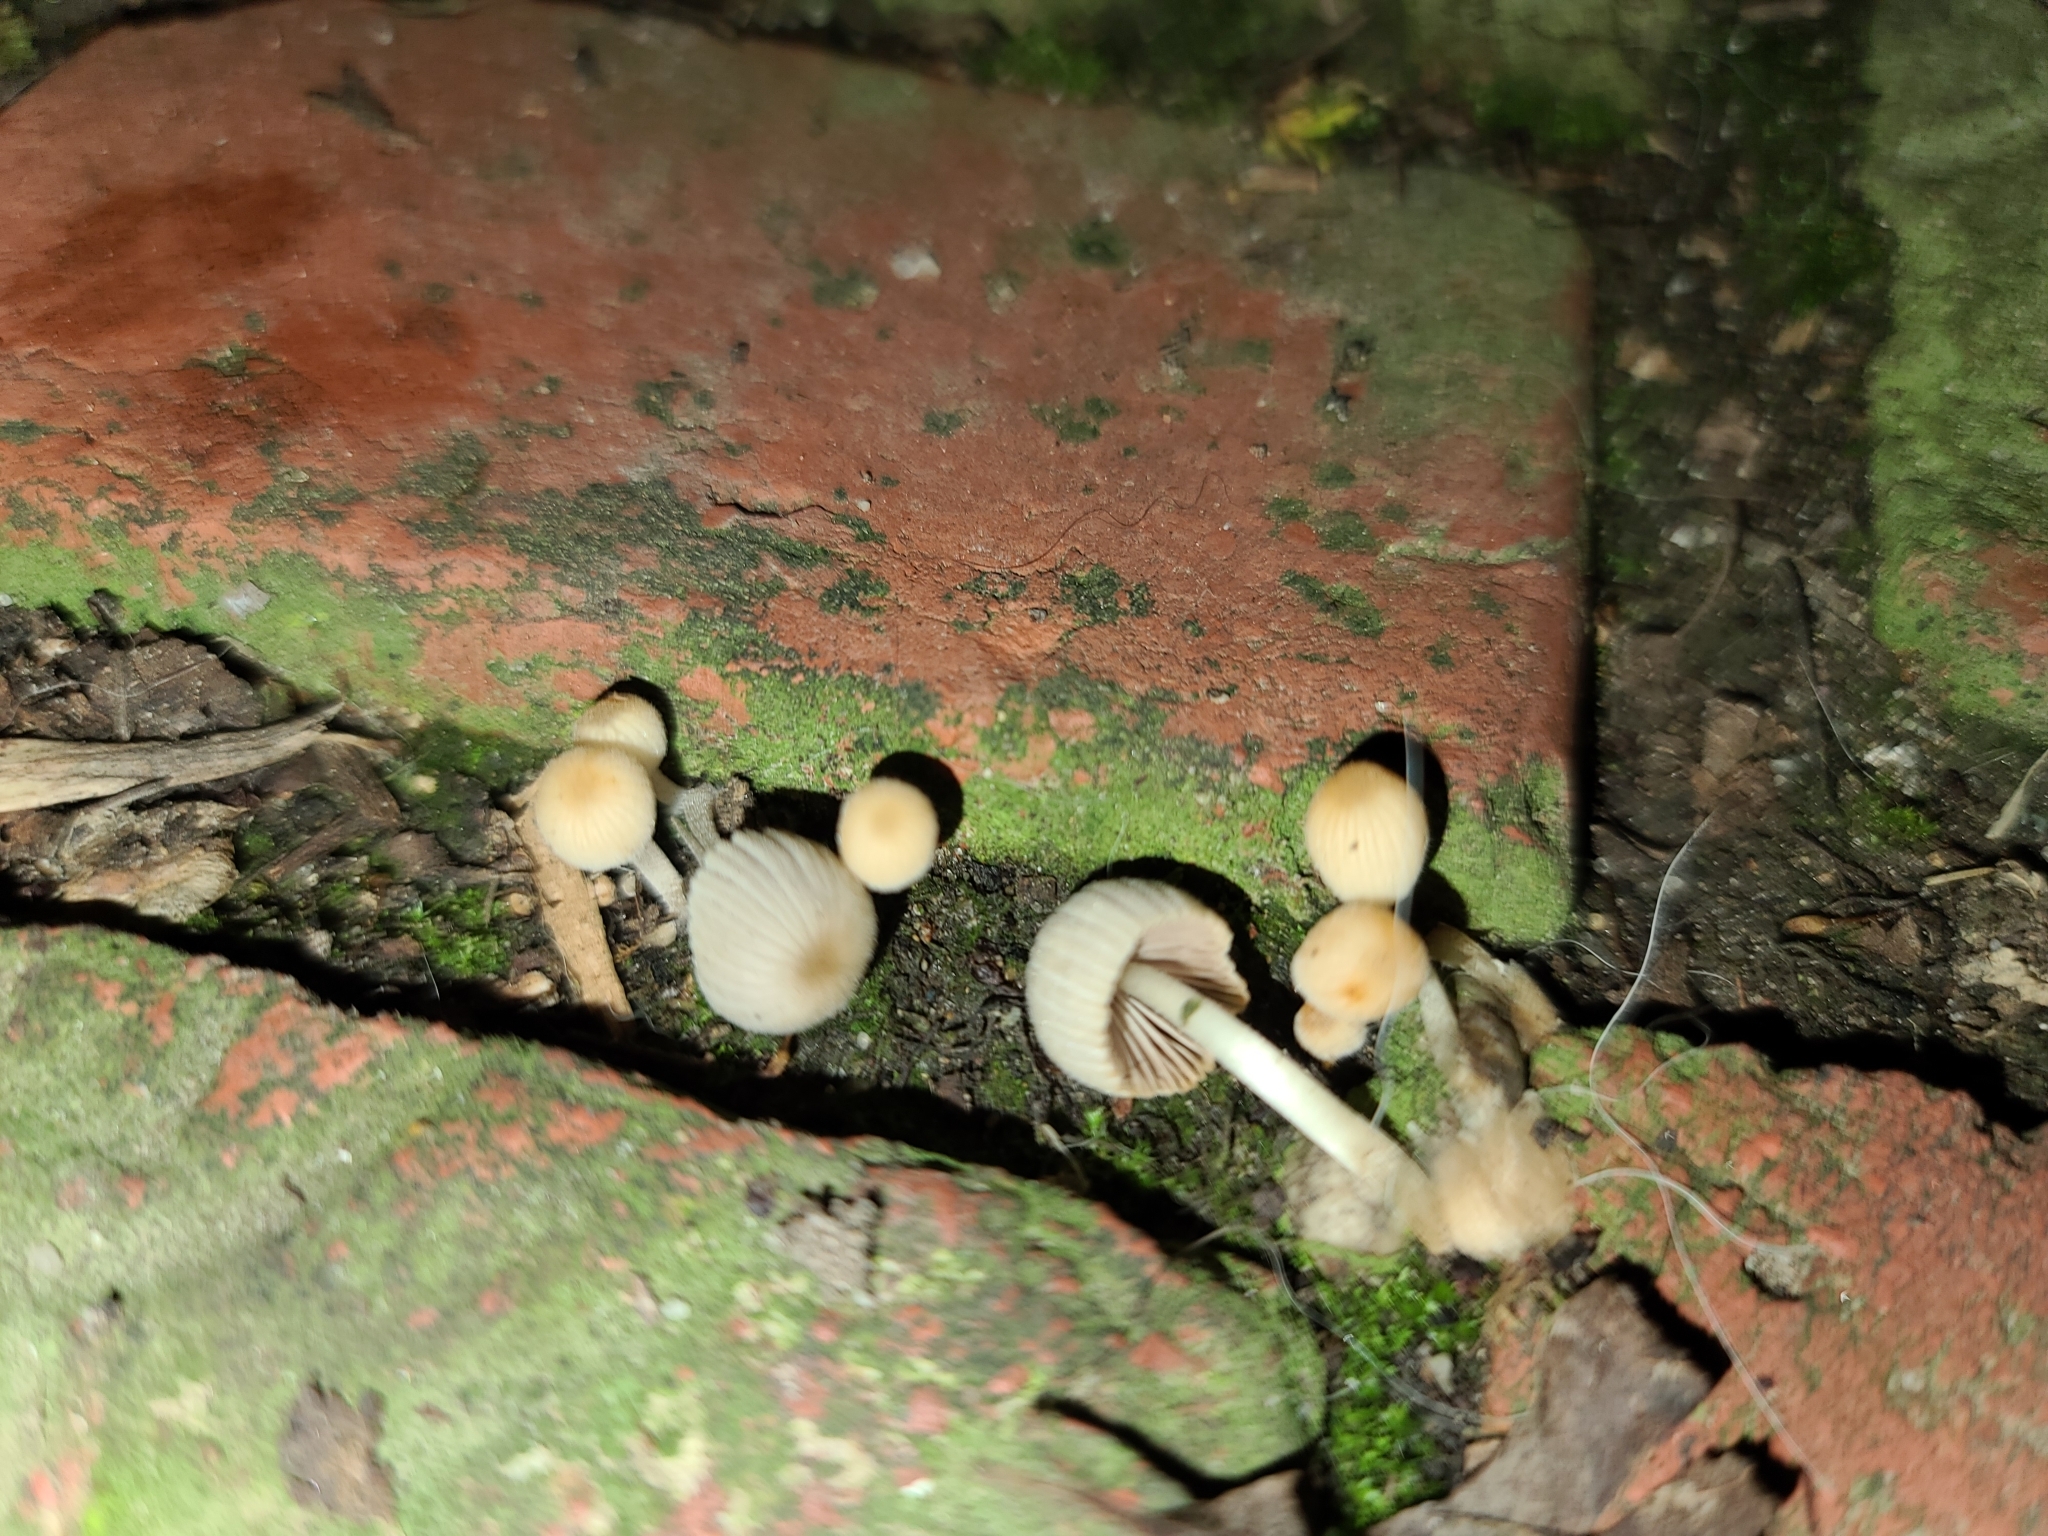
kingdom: Fungi
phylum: Basidiomycota
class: Agaricomycetes
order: Agaricales
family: Psathyrellaceae
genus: Coprinellus
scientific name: Coprinellus disseminatus
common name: Fairies' bonnets
